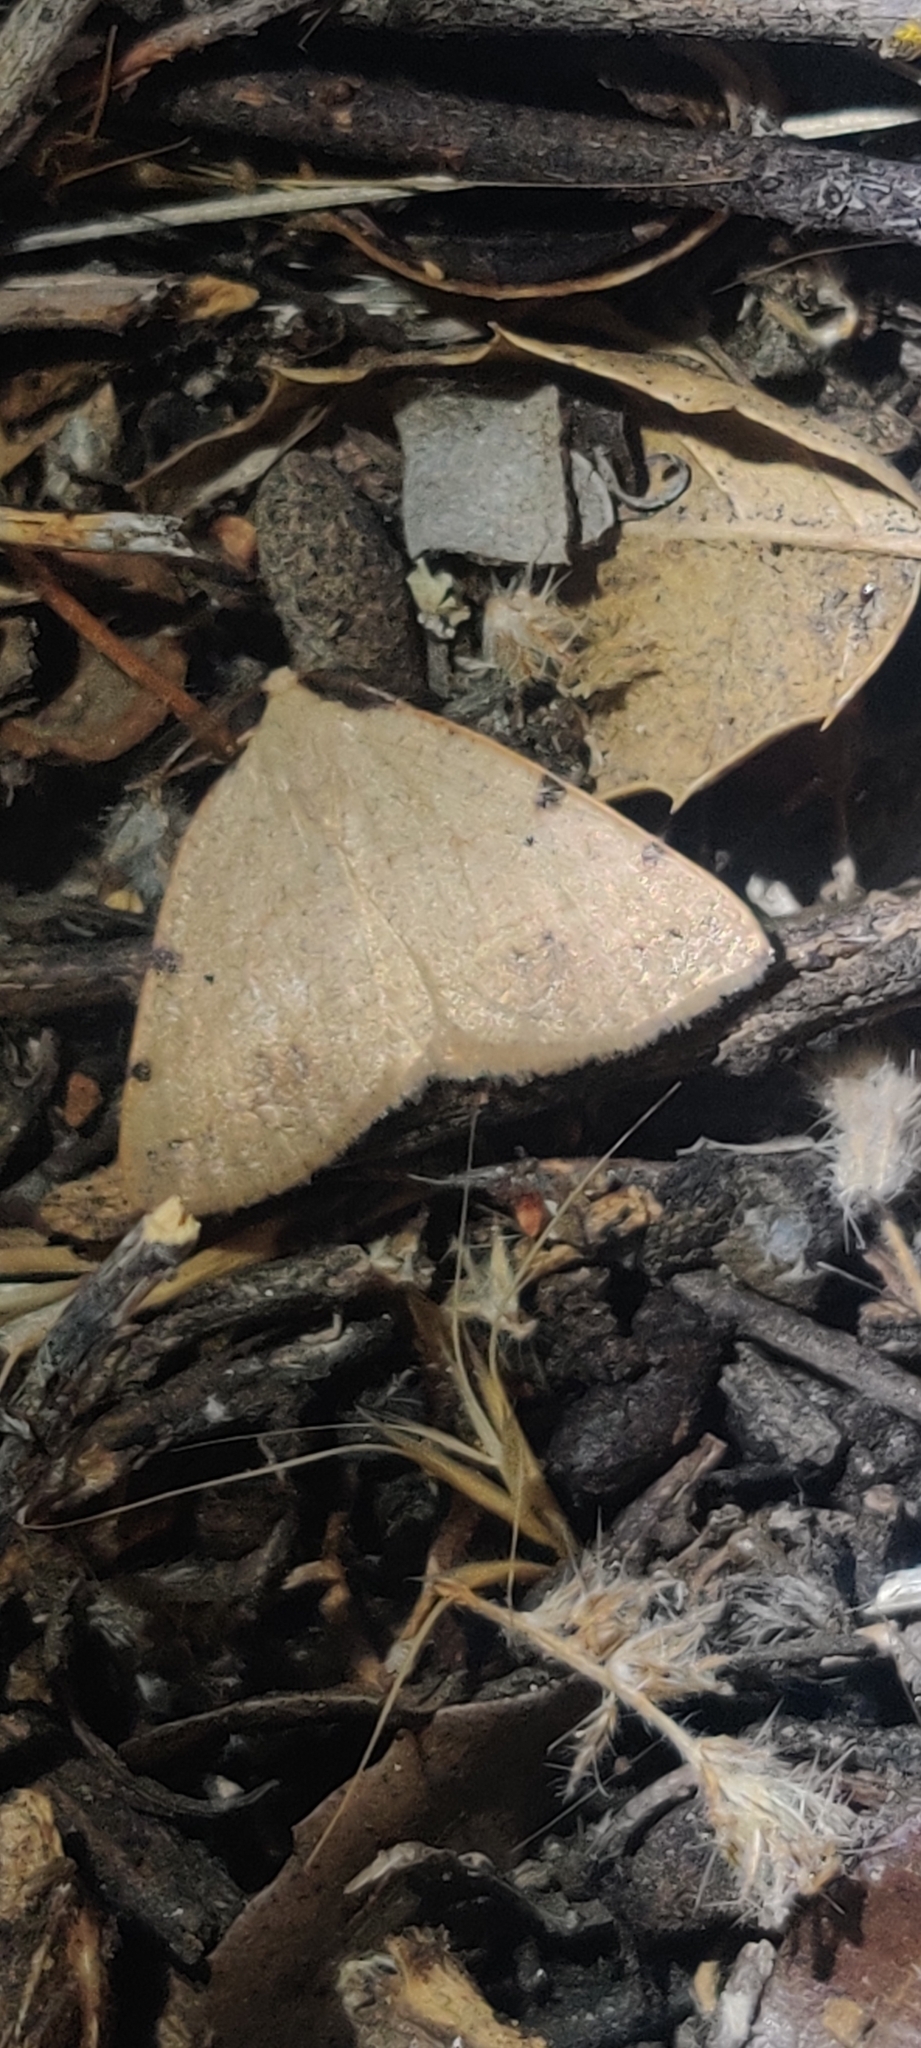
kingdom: Animalia
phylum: Arthropoda
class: Insecta
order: Lepidoptera
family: Geometridae
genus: Drepanulatrix
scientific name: Drepanulatrix bifilata
